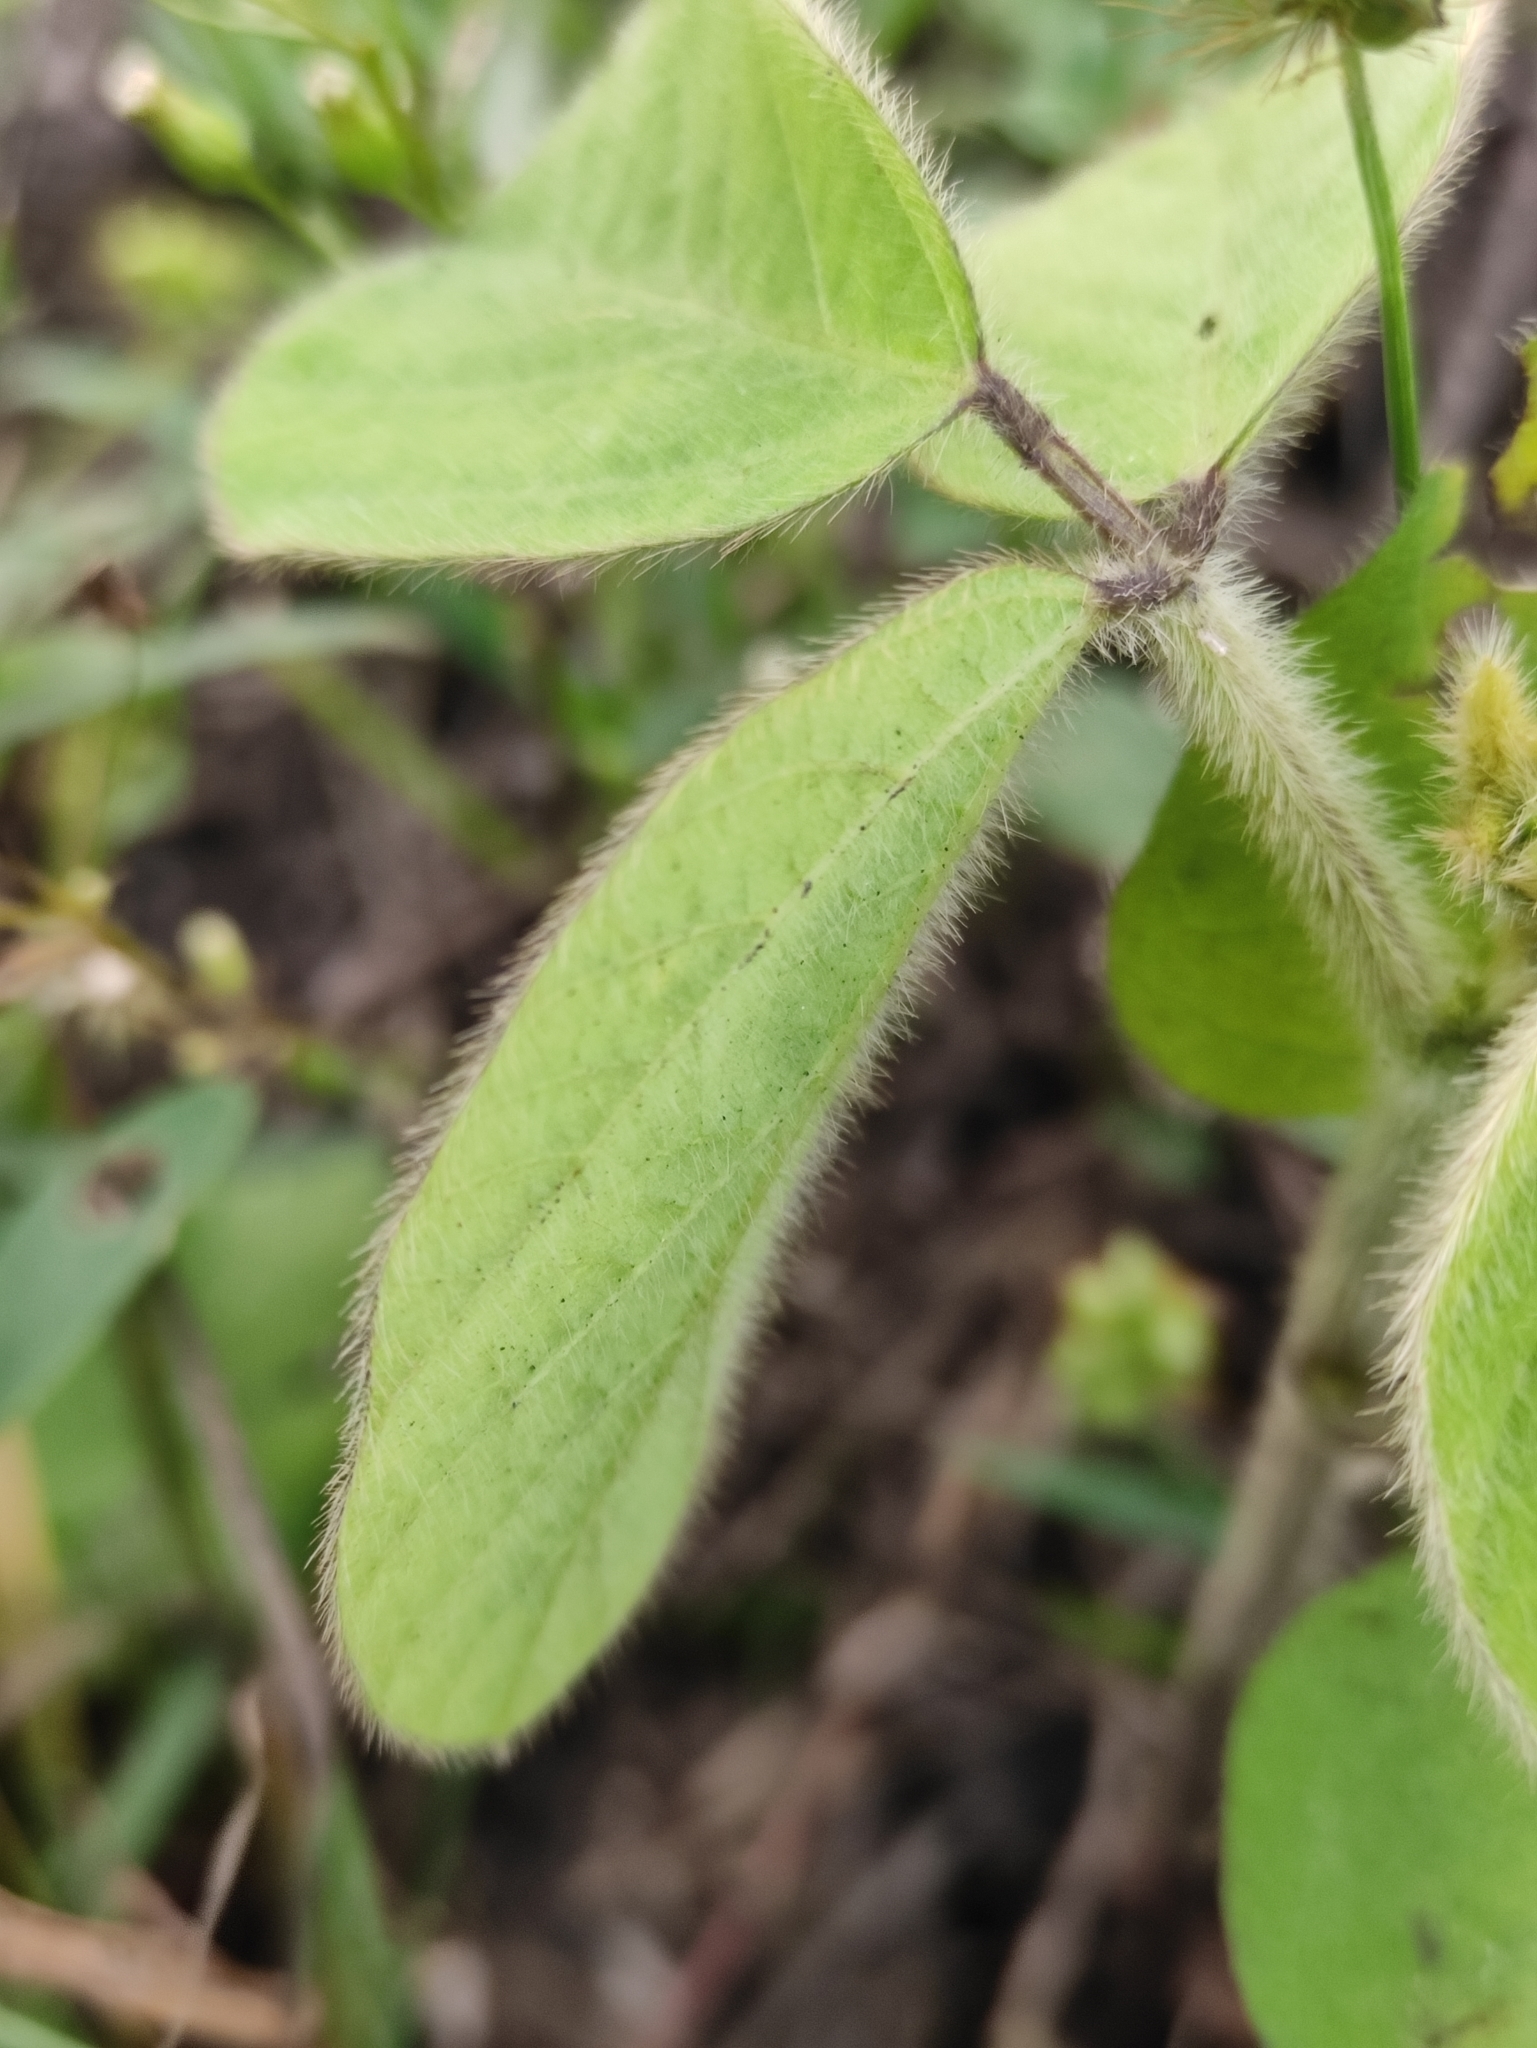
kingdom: Plantae
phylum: Tracheophyta
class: Magnoliopsida
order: Fabales
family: Fabaceae
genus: Glycine
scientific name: Glycine max
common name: Soya-bean
